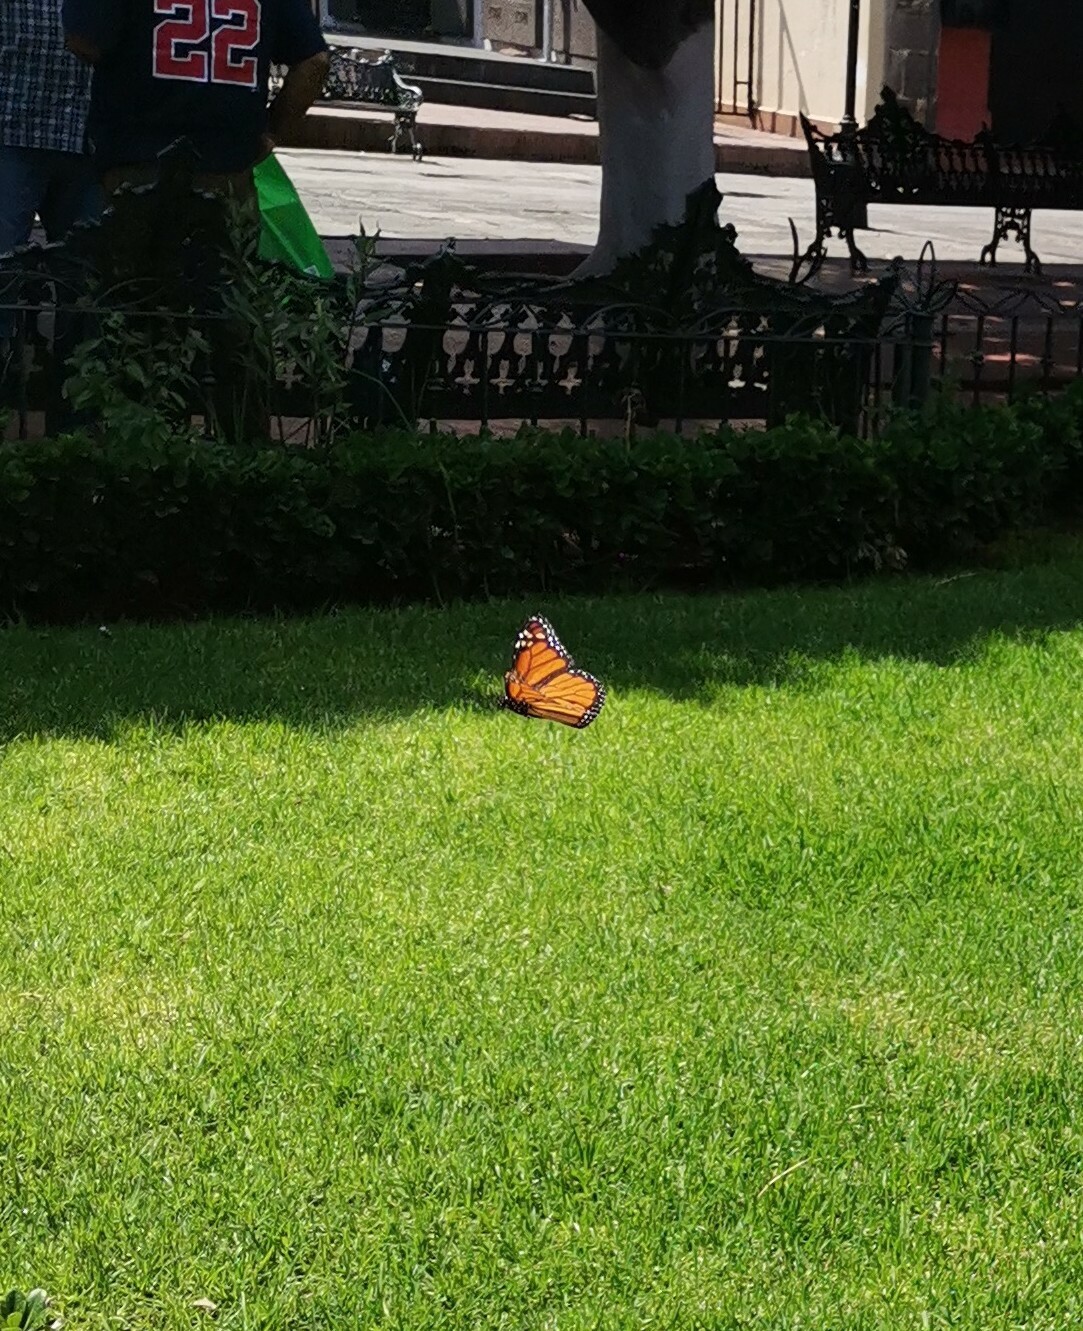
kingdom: Animalia
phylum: Arthropoda
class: Insecta
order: Lepidoptera
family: Nymphalidae
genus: Danaus
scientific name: Danaus plexippus
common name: Monarch
